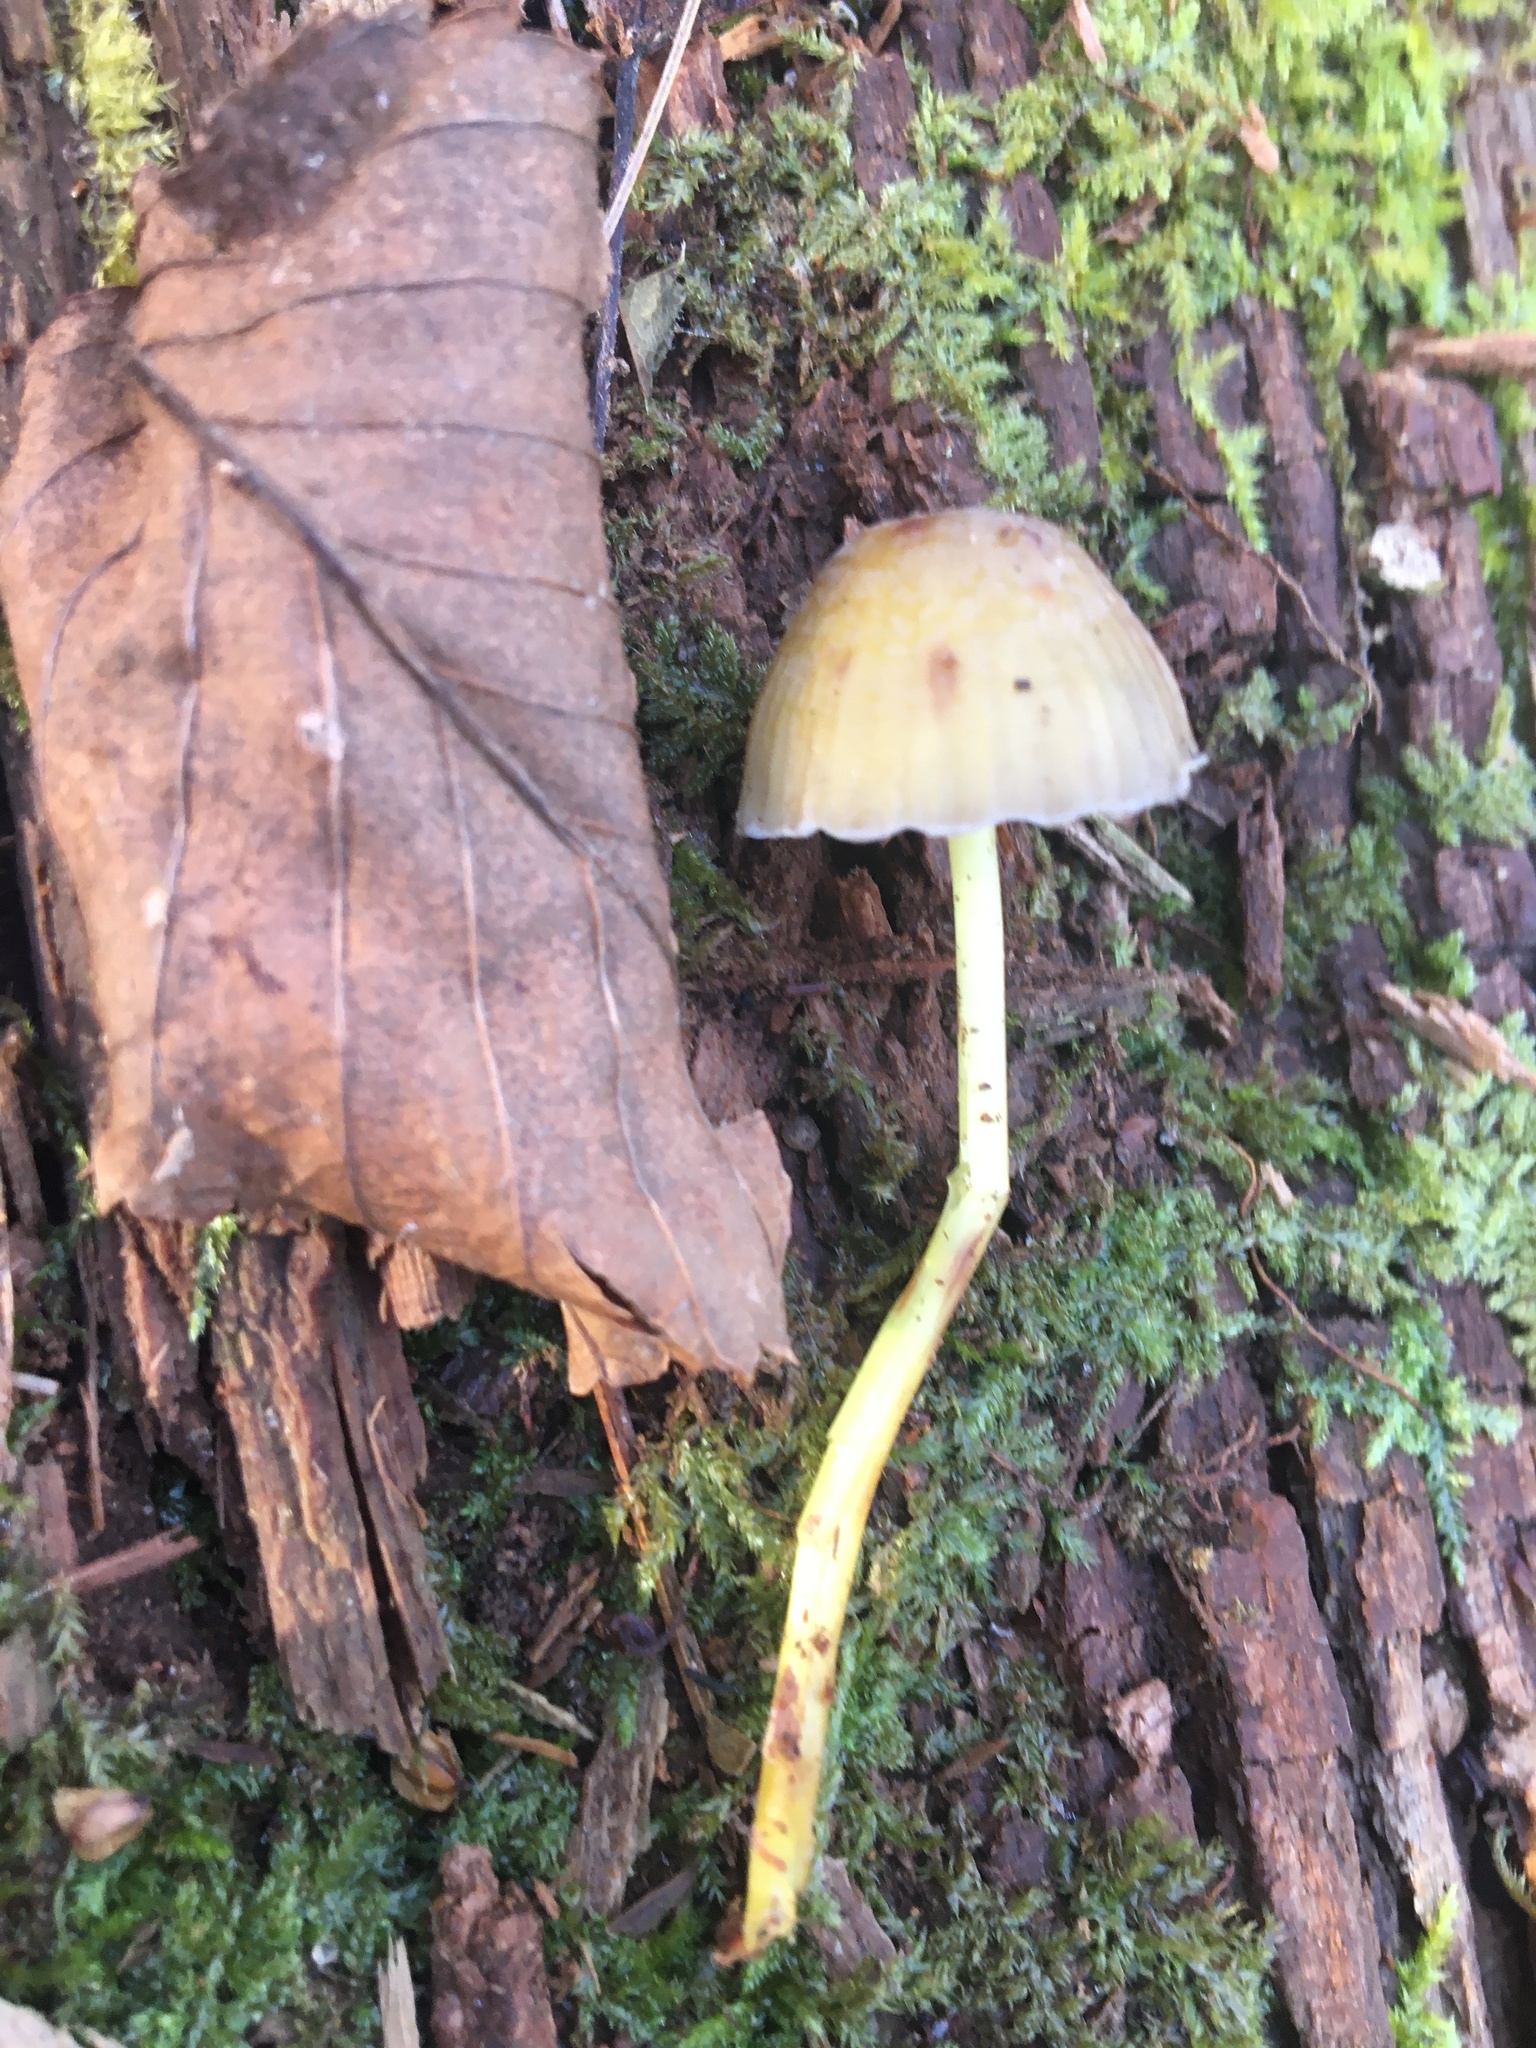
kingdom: Fungi
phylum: Basidiomycota
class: Agaricomycetes
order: Agaricales
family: Mycenaceae
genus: Mycena
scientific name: Mycena epipterygia
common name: Yellowleg bonnet
